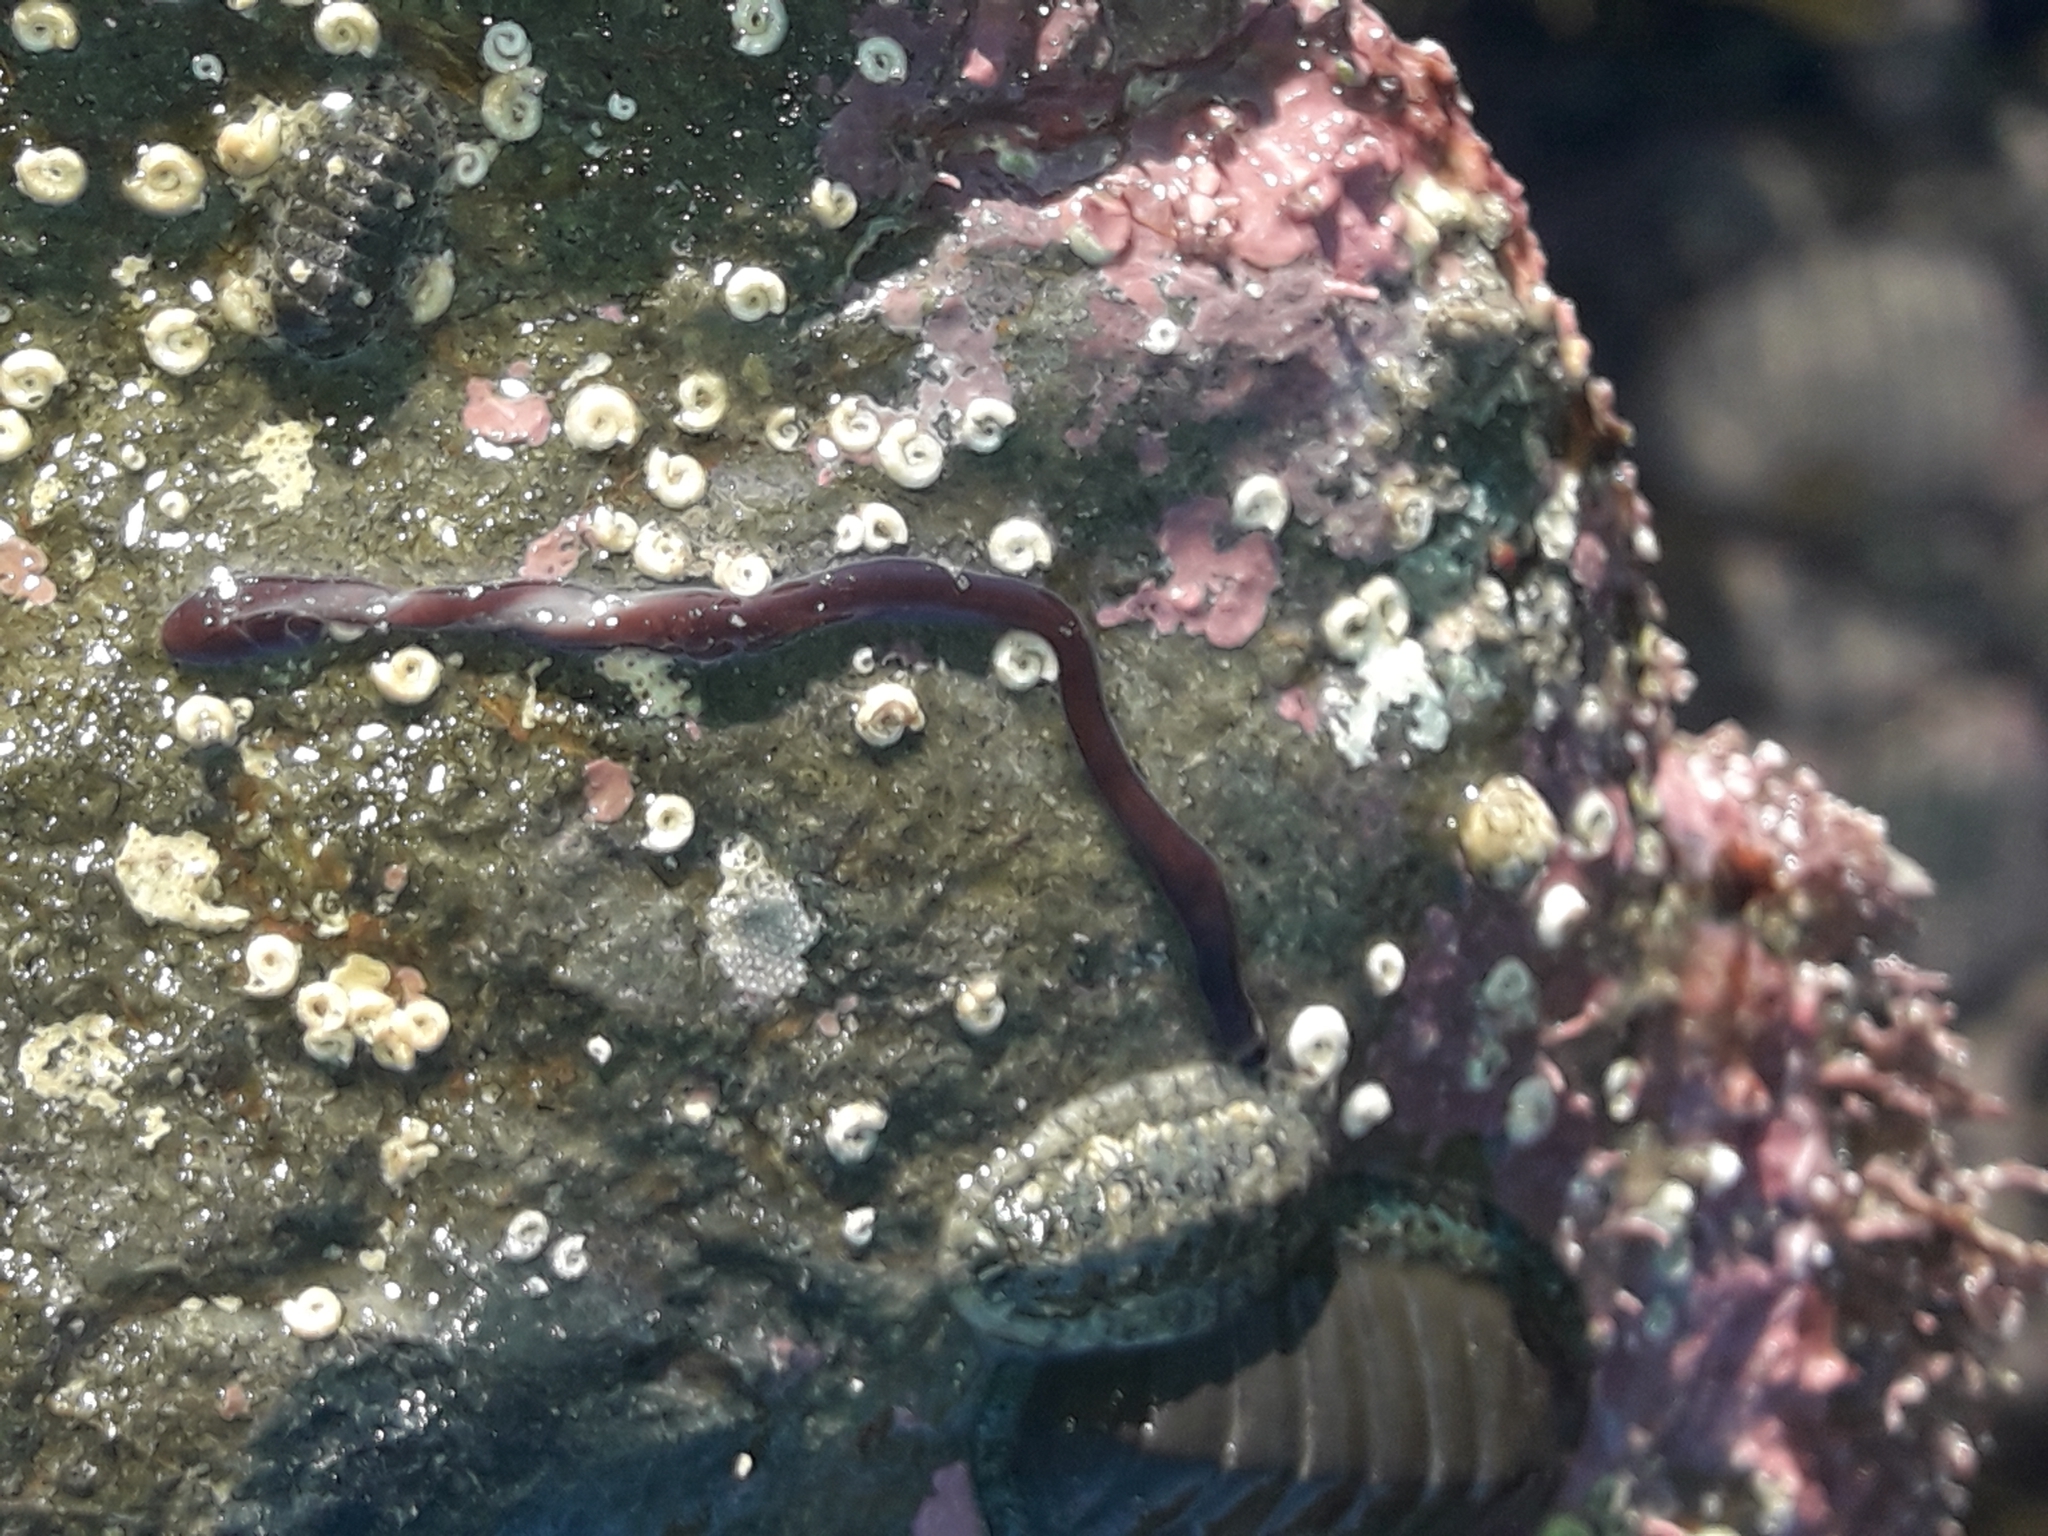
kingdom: Animalia
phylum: Nemertea
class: Hoplonemertea
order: Monostilifera
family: Neesiidae
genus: Noteonemertes
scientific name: Noteonemertes novaezealandiae
